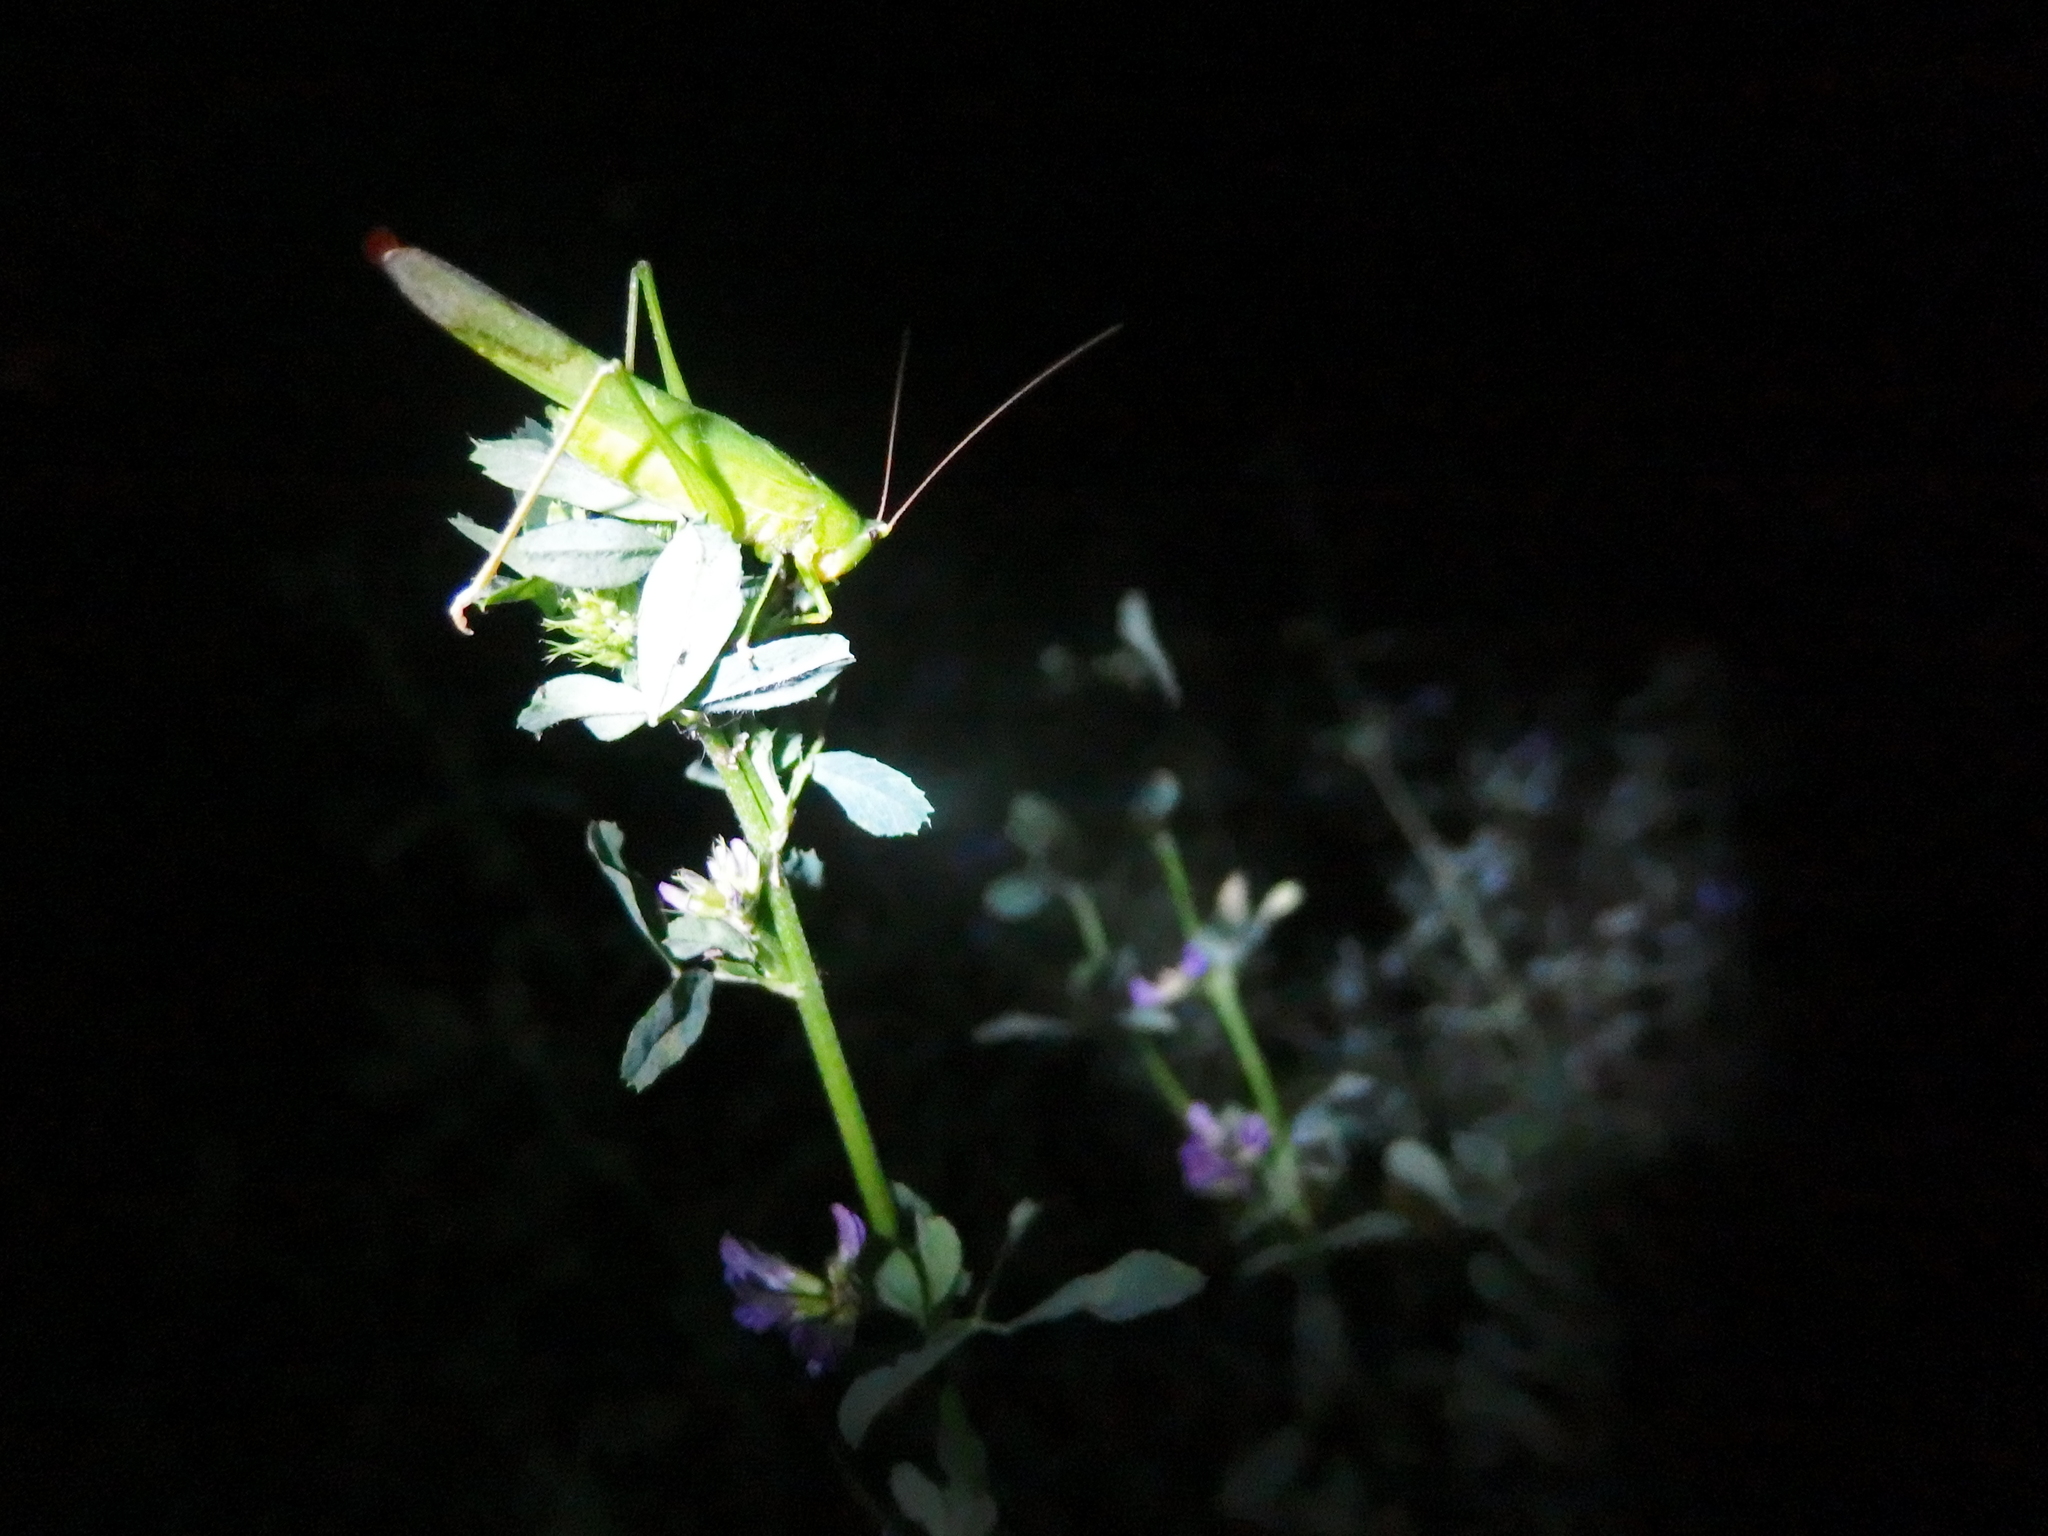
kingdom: Animalia
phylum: Arthropoda
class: Insecta
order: Orthoptera
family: Tettigoniidae
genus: Ruspolia
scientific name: Ruspolia nitidula
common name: Large conehead
